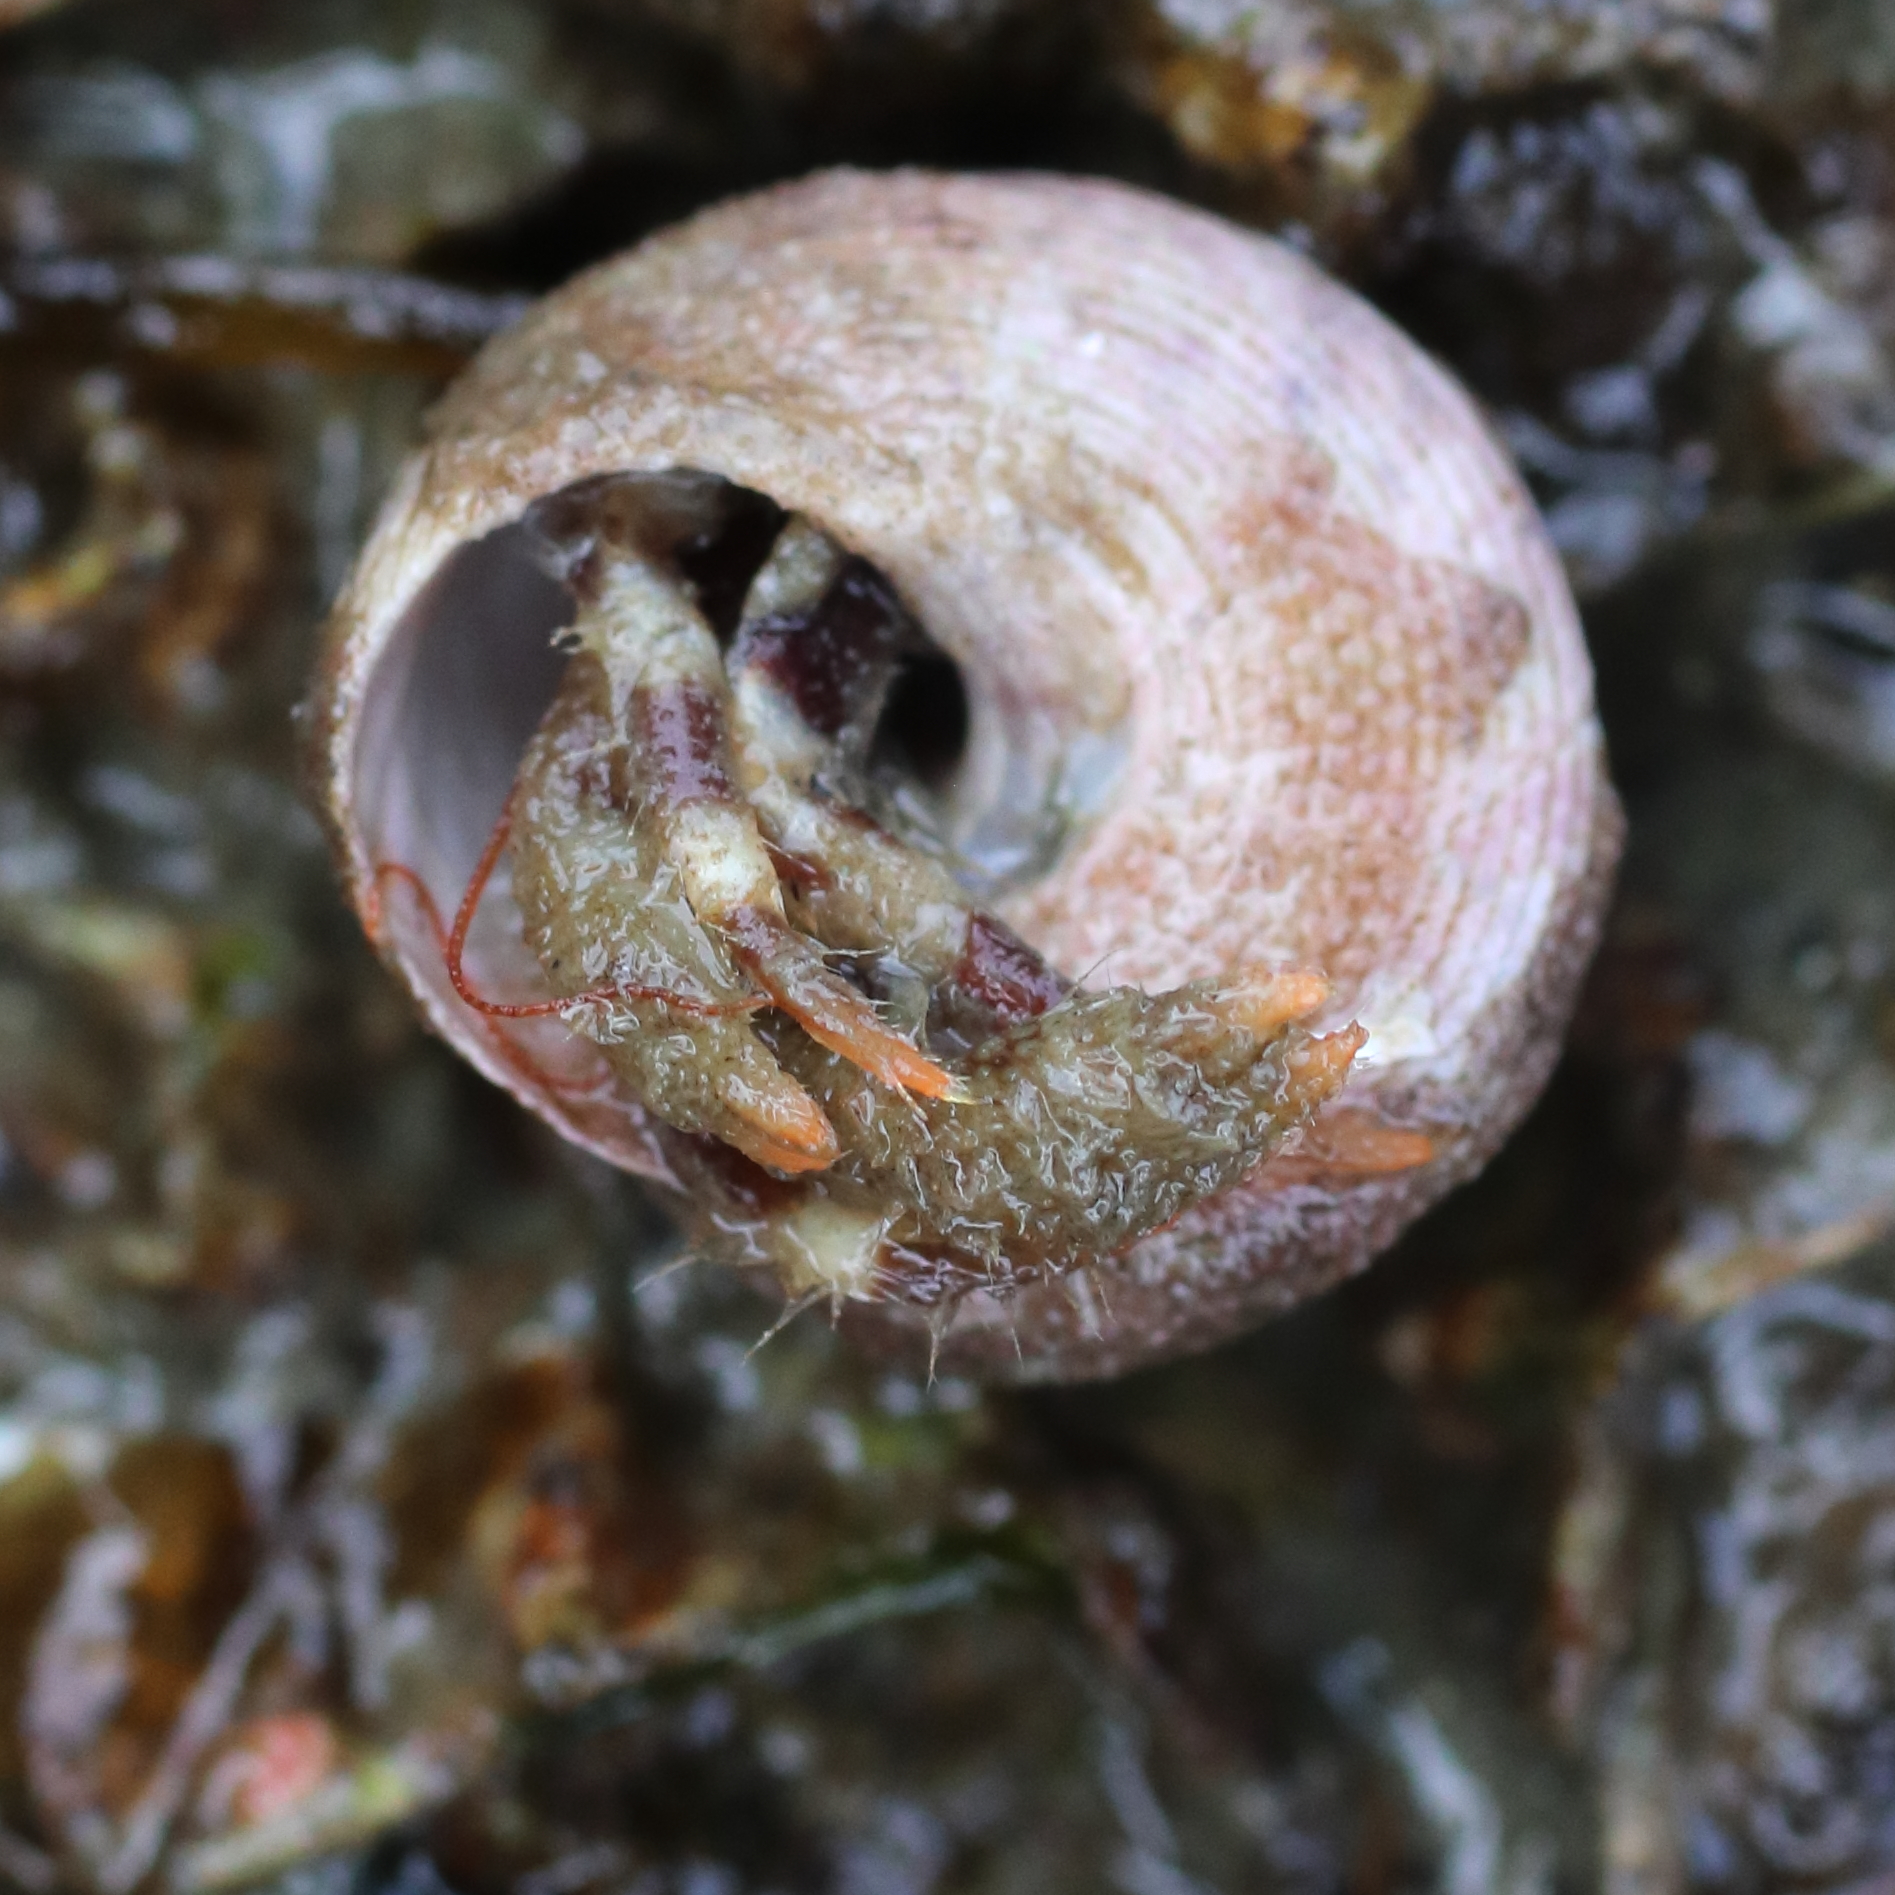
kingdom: Animalia
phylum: Arthropoda
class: Malacostraca
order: Decapoda
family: Paguridae
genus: Pagurus
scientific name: Pagurus caurinus
